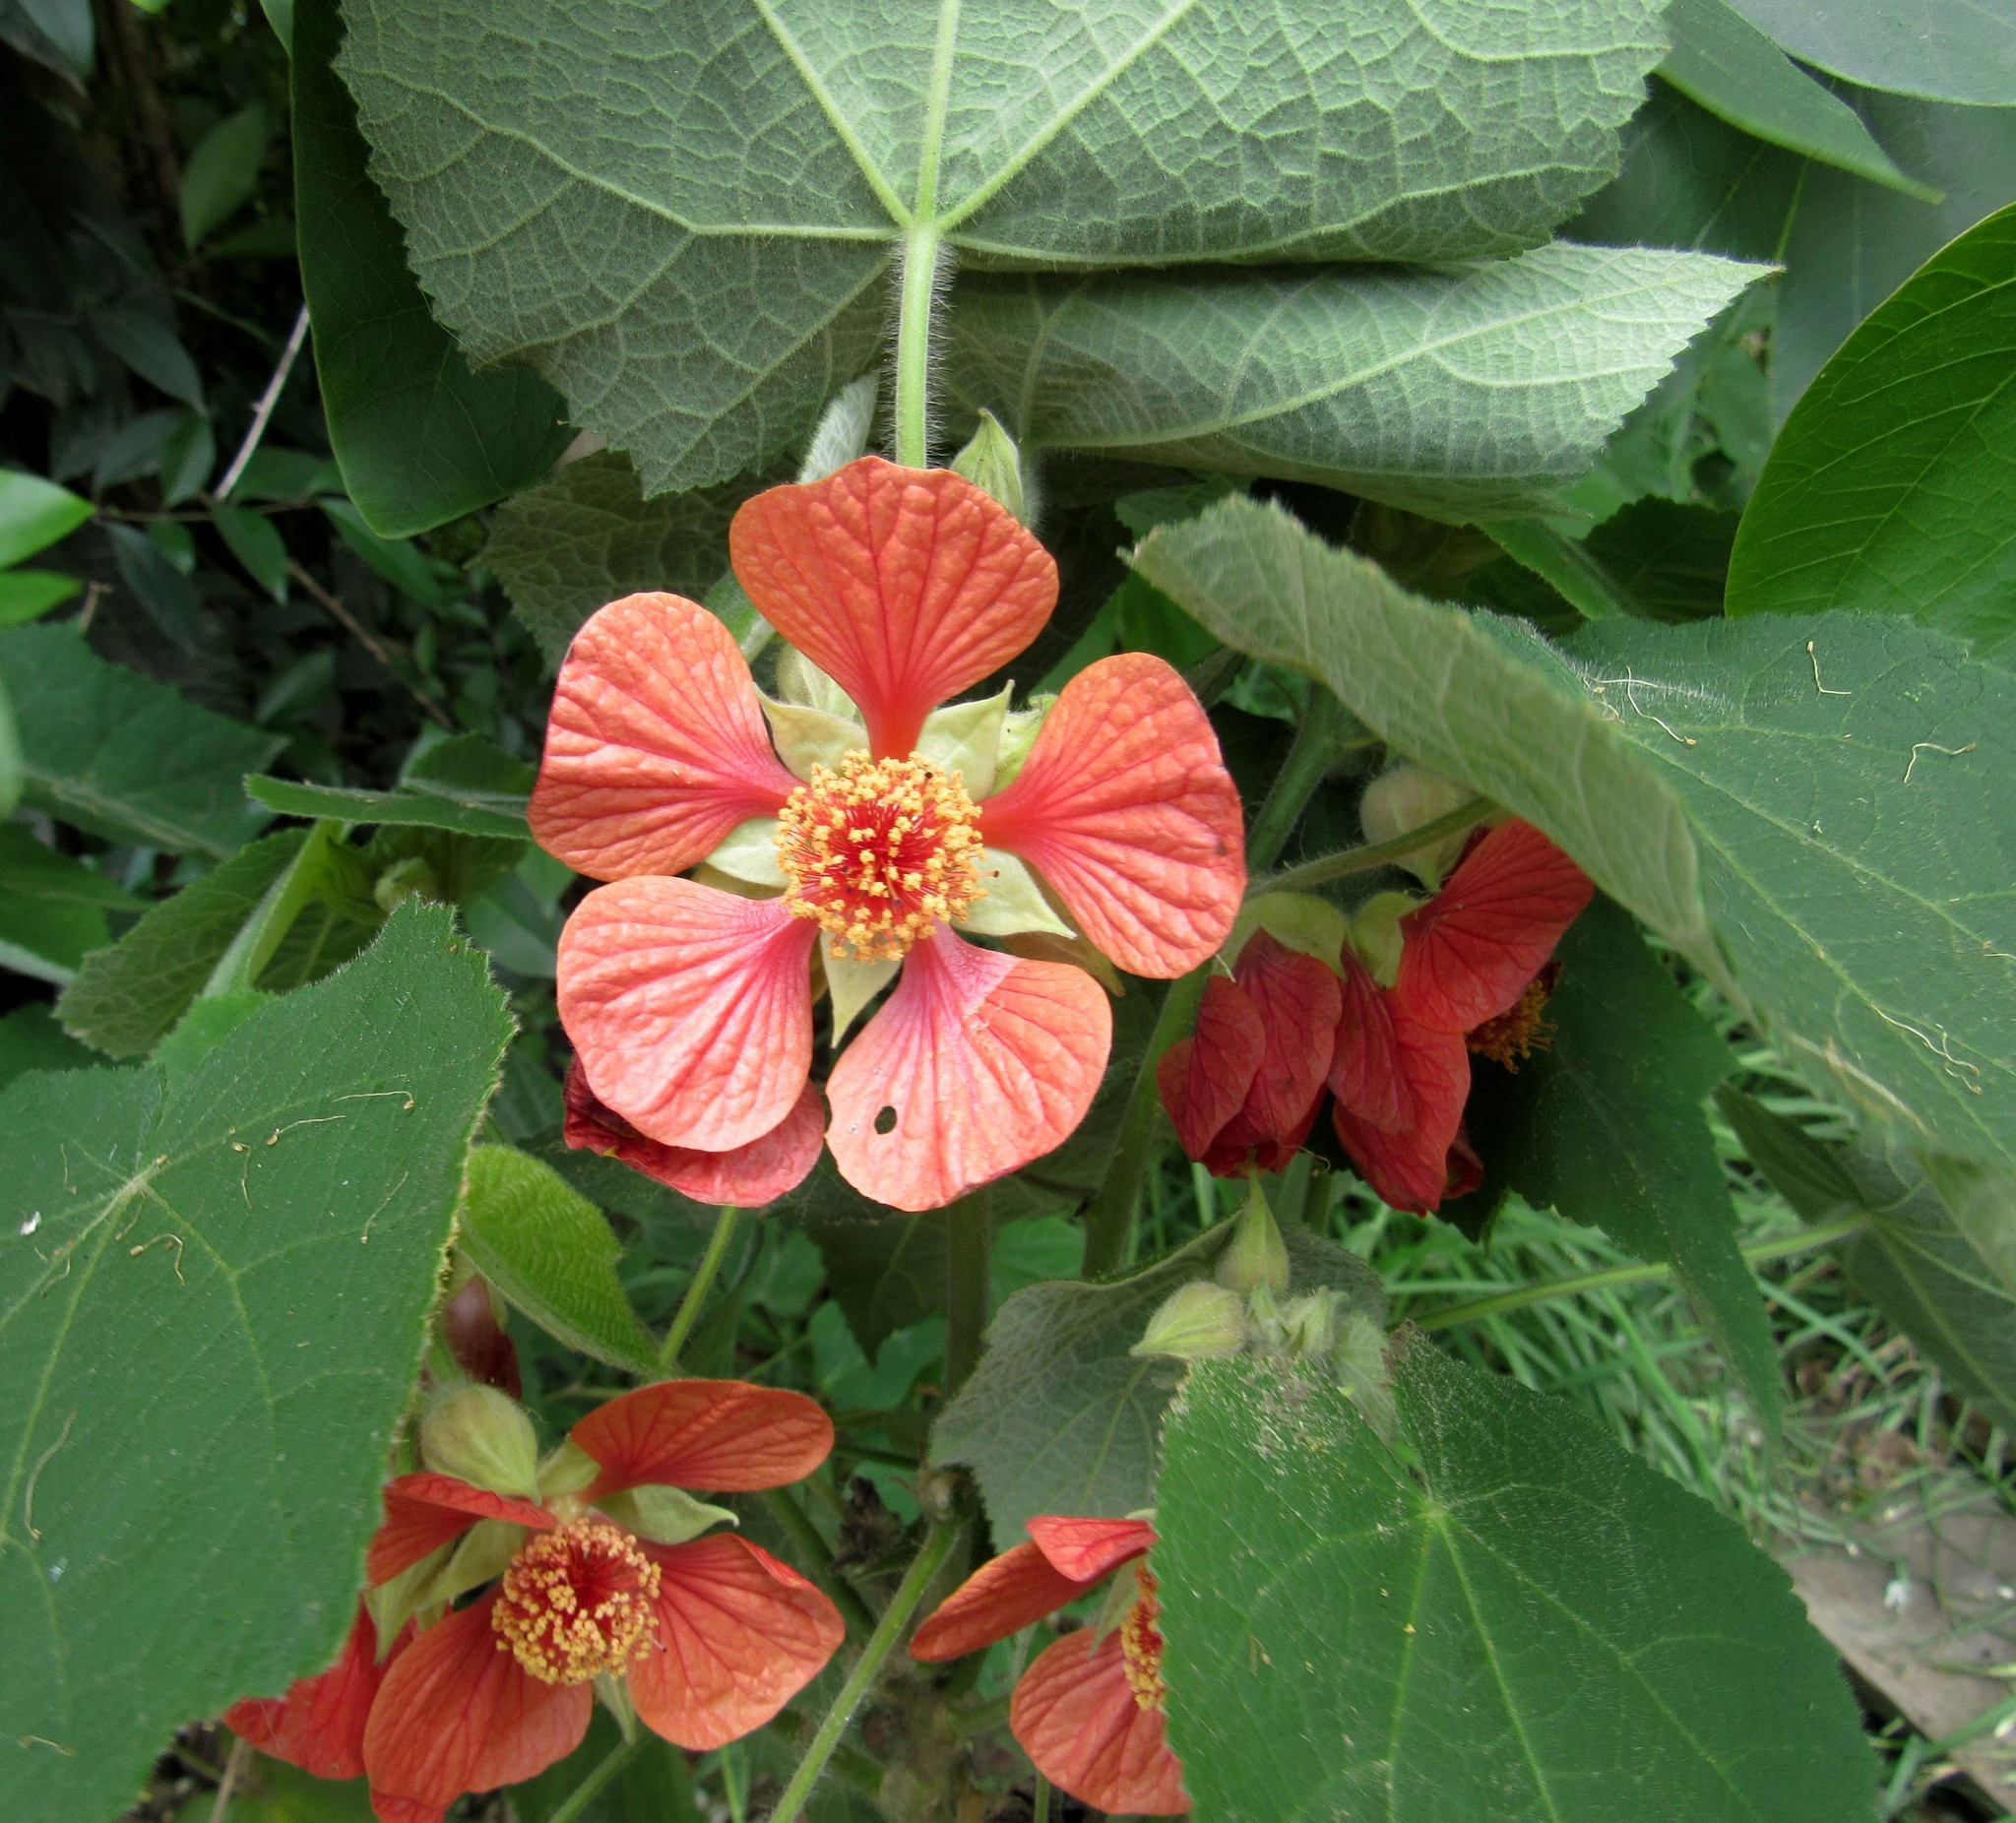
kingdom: Plantae
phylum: Tracheophyta
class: Magnoliopsida
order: Malvales
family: Malvaceae
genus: Callianthe
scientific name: Callianthe darwinii
